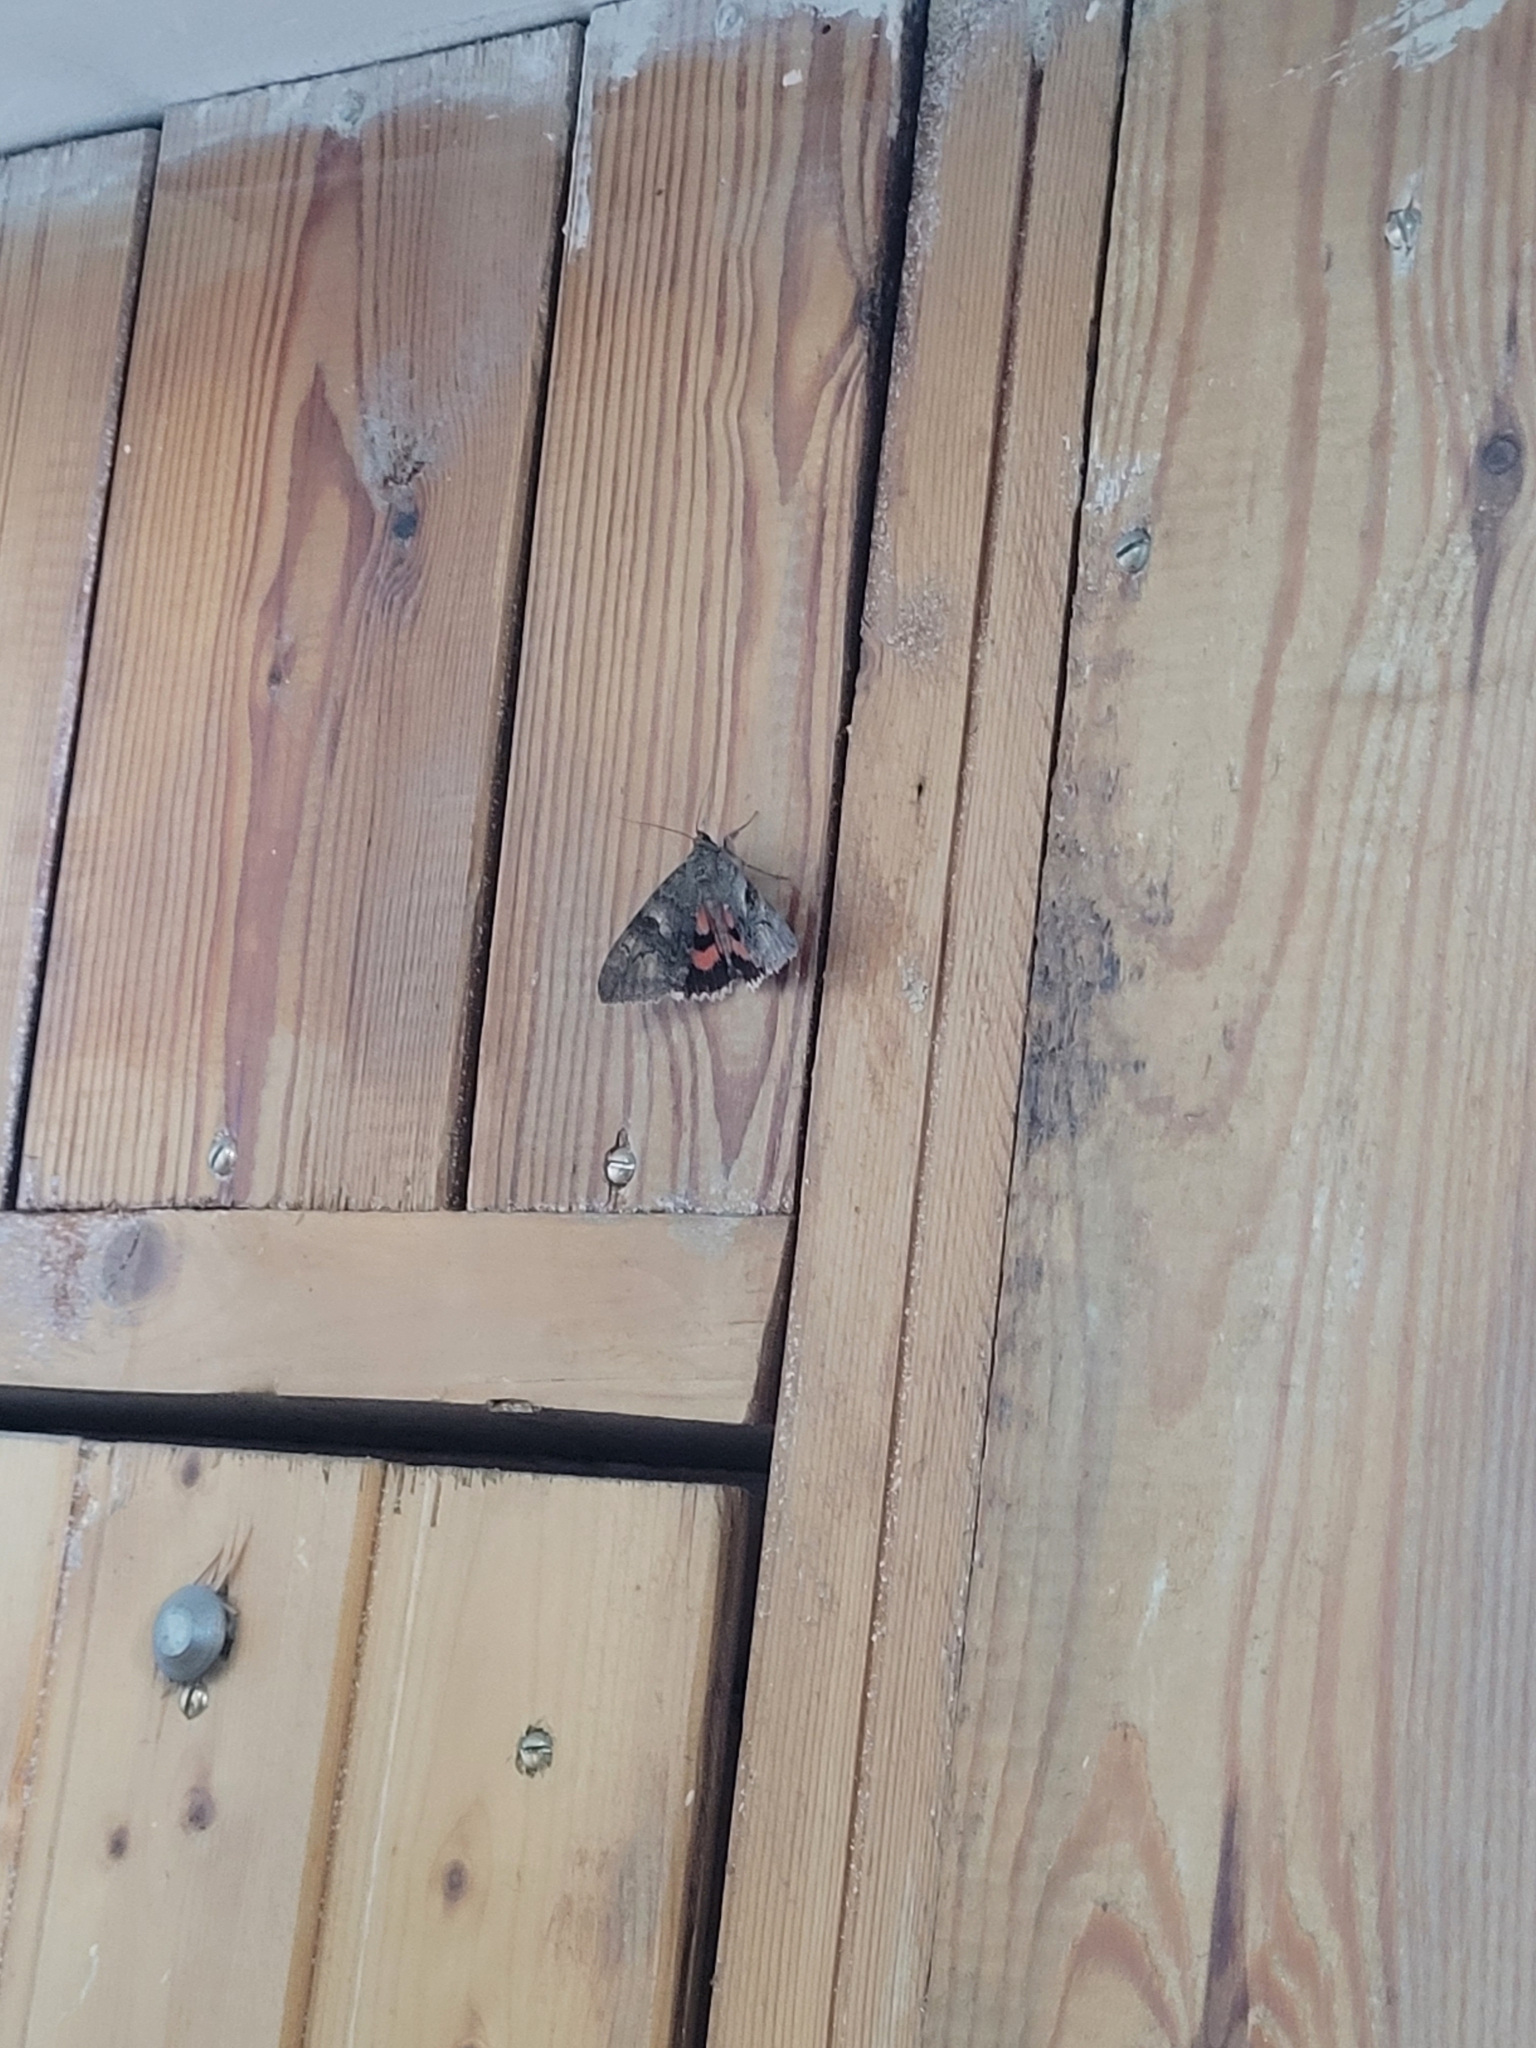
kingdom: Animalia
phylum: Arthropoda
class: Insecta
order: Lepidoptera
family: Erebidae
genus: Catocala
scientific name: Catocala nupta
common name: Red underwing
